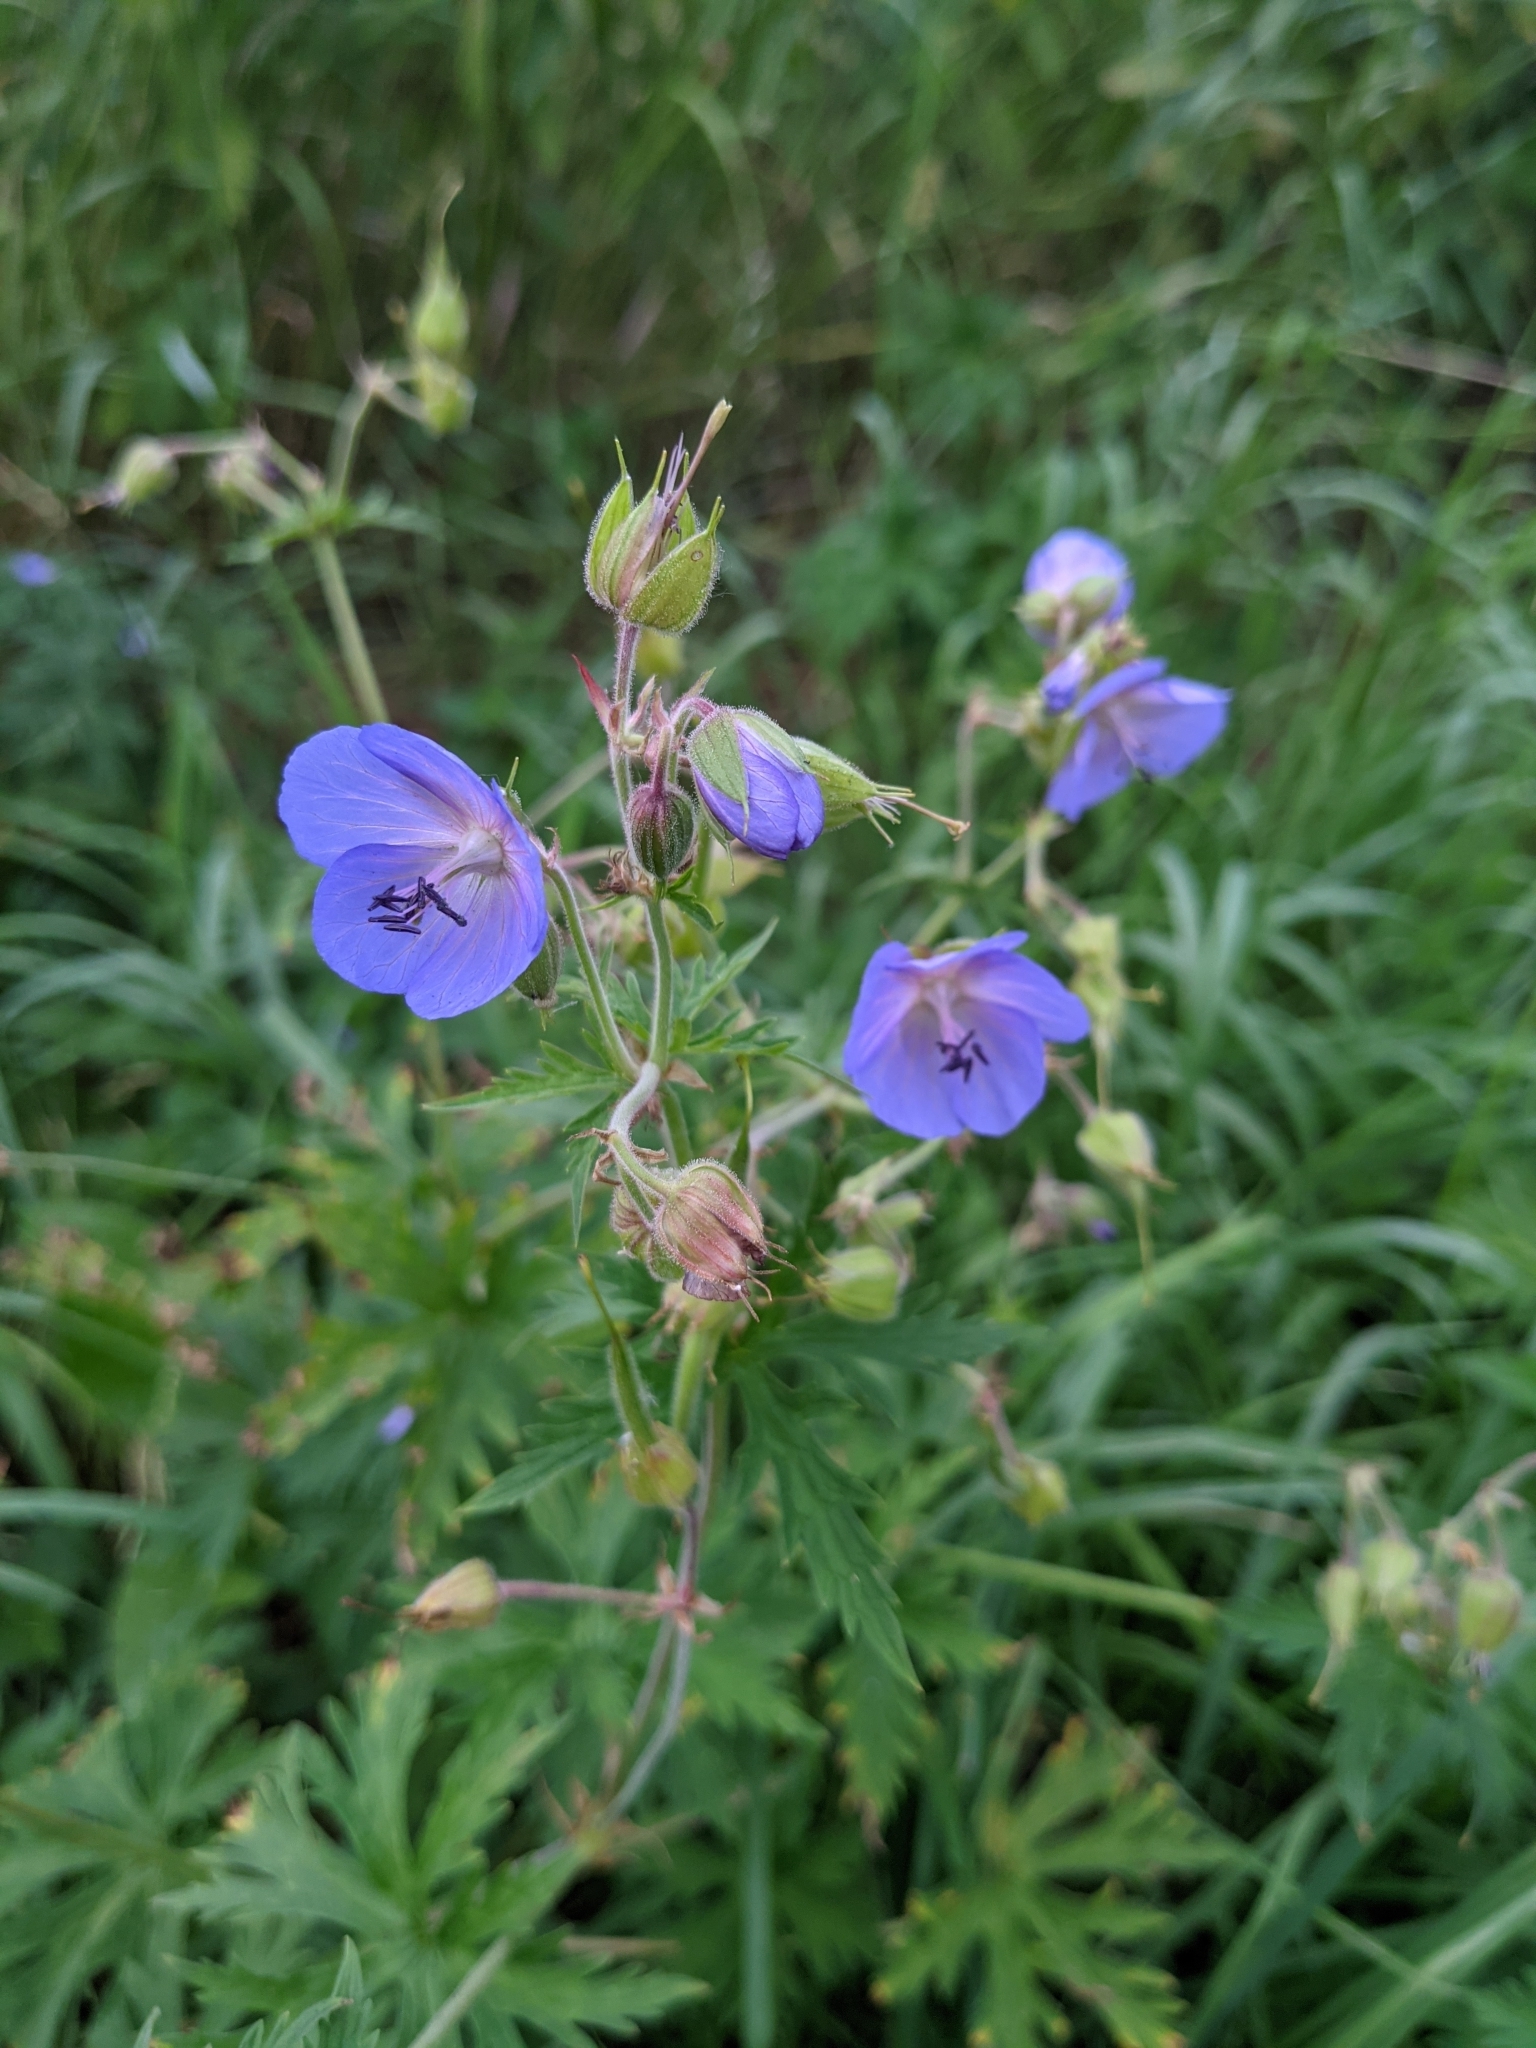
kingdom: Plantae
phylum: Tracheophyta
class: Magnoliopsida
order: Geraniales
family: Geraniaceae
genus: Geranium
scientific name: Geranium pratense
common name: Meadow crane's-bill
